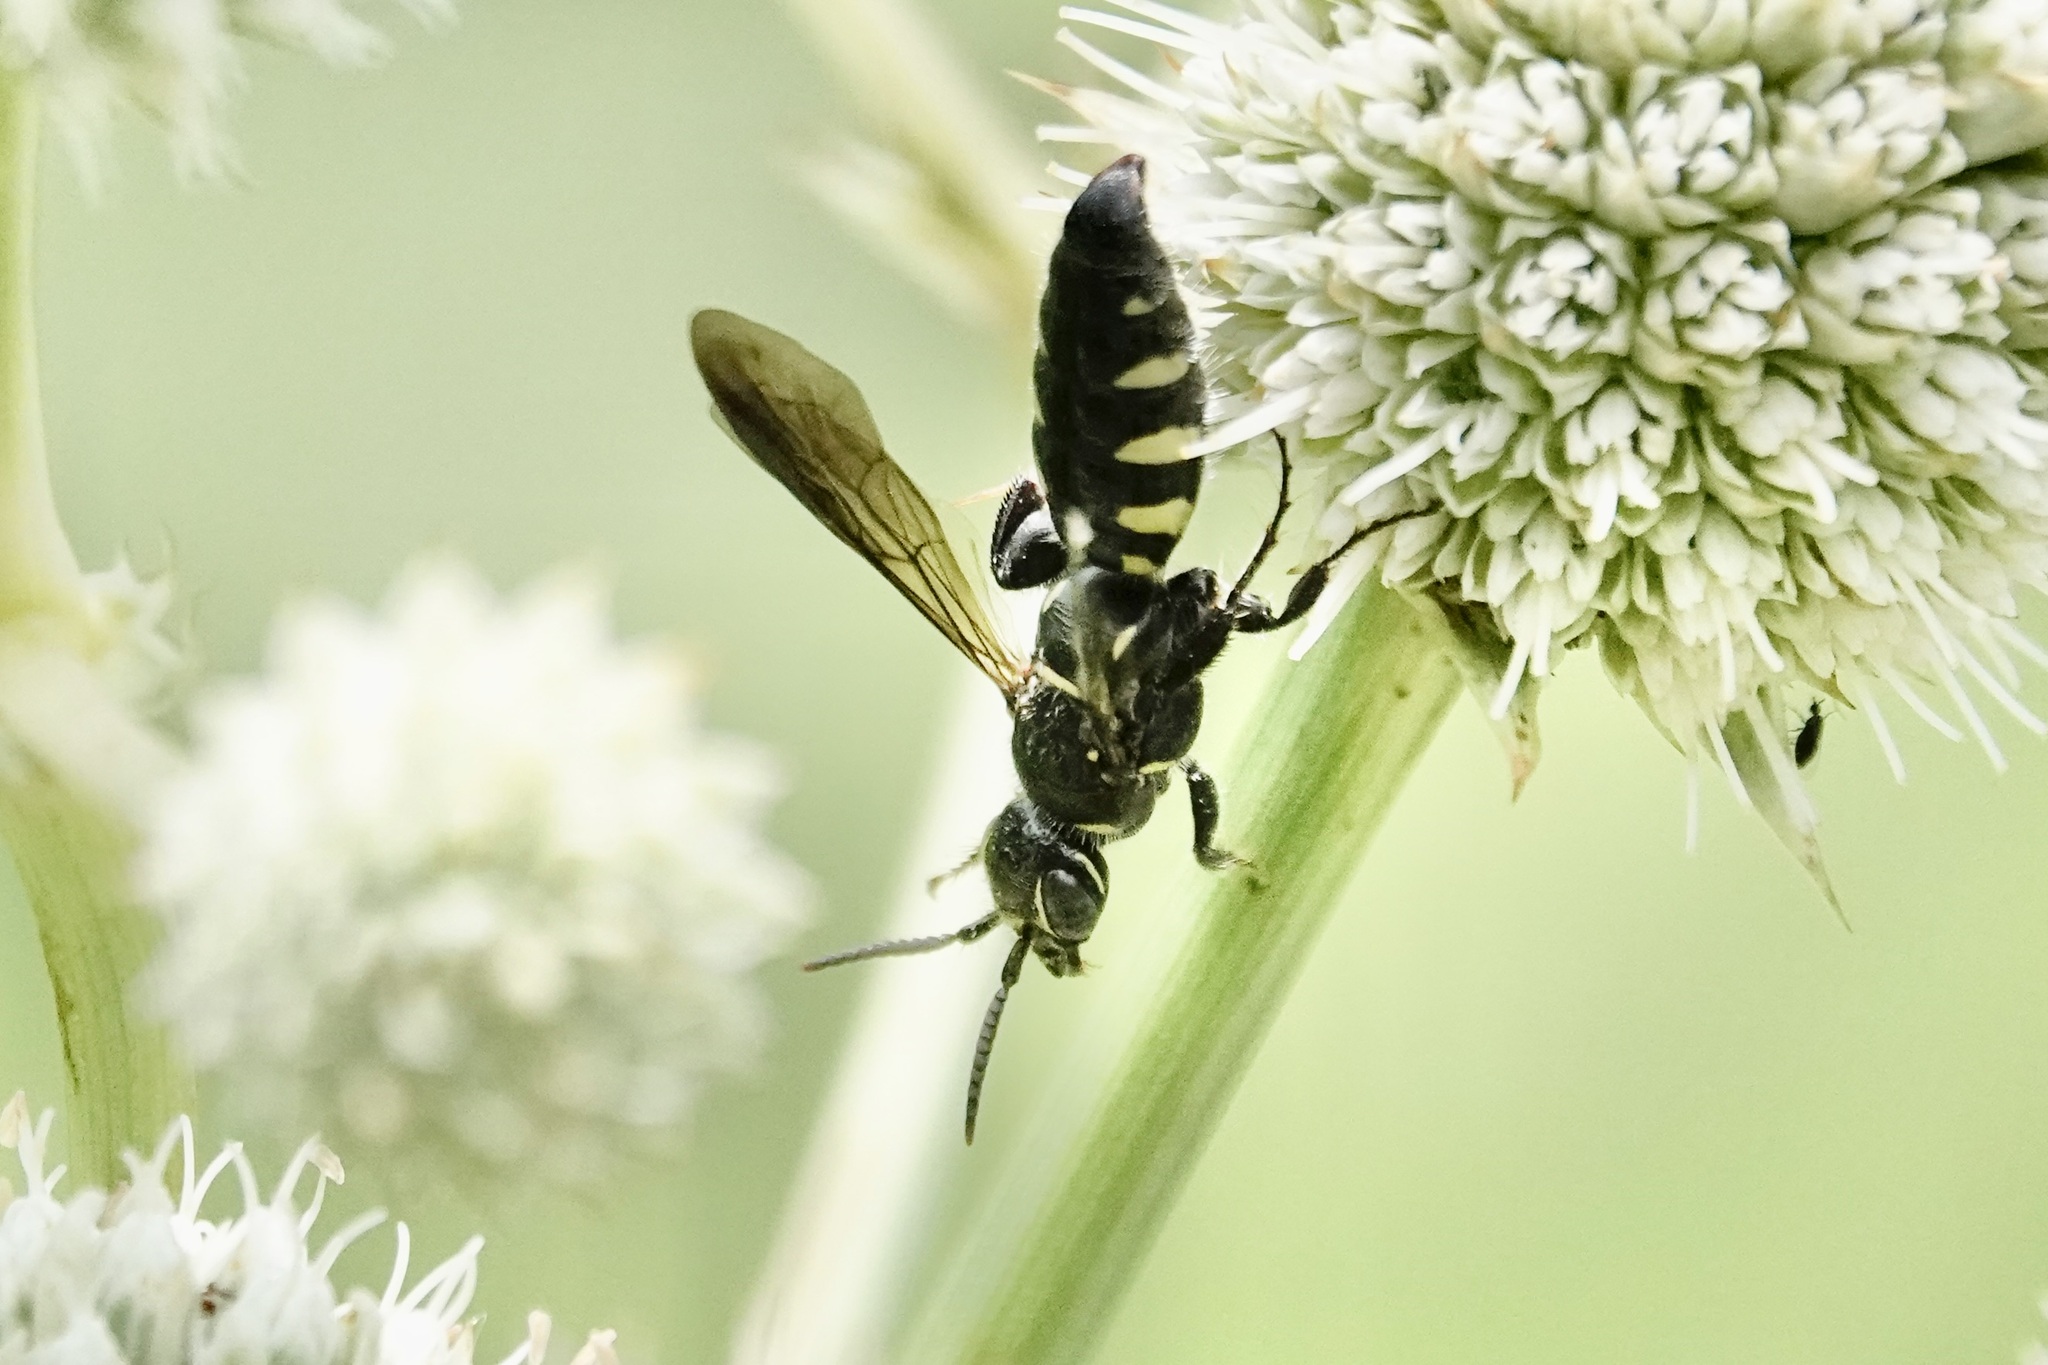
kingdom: Animalia
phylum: Arthropoda
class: Insecta
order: Hymenoptera
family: Tiphiidae
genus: Myzinum
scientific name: Myzinum obscurum
